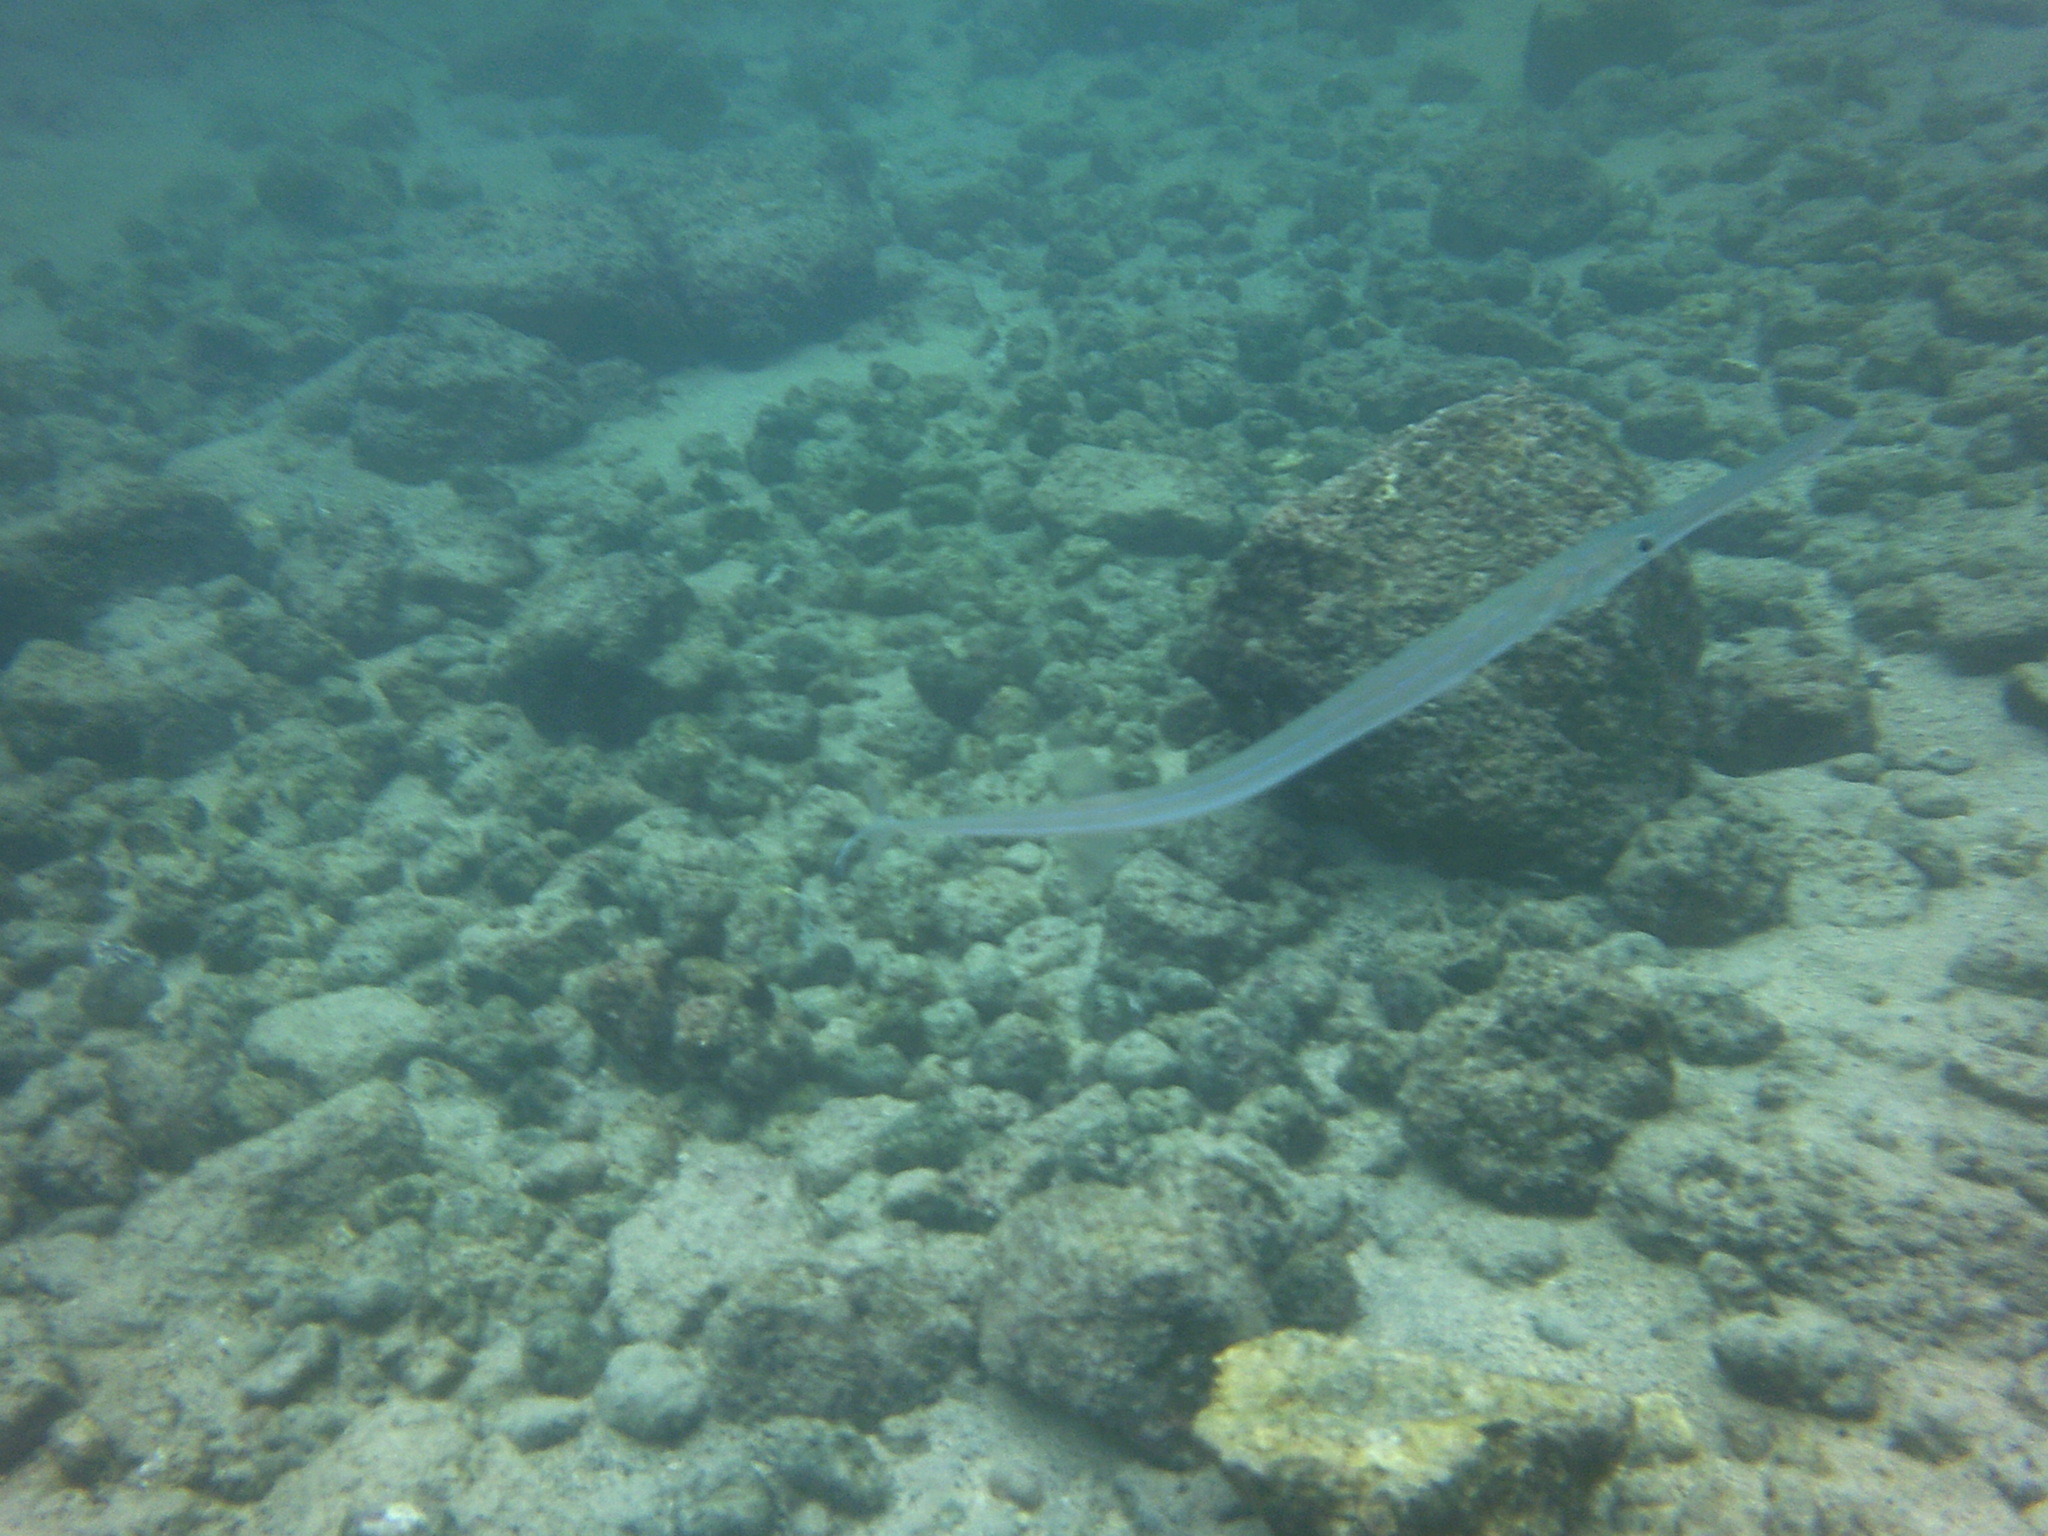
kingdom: Animalia
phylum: Chordata
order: Syngnathiformes
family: Fistulariidae
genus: Fistularia
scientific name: Fistularia commersonii
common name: Bluespotted cornetfish
